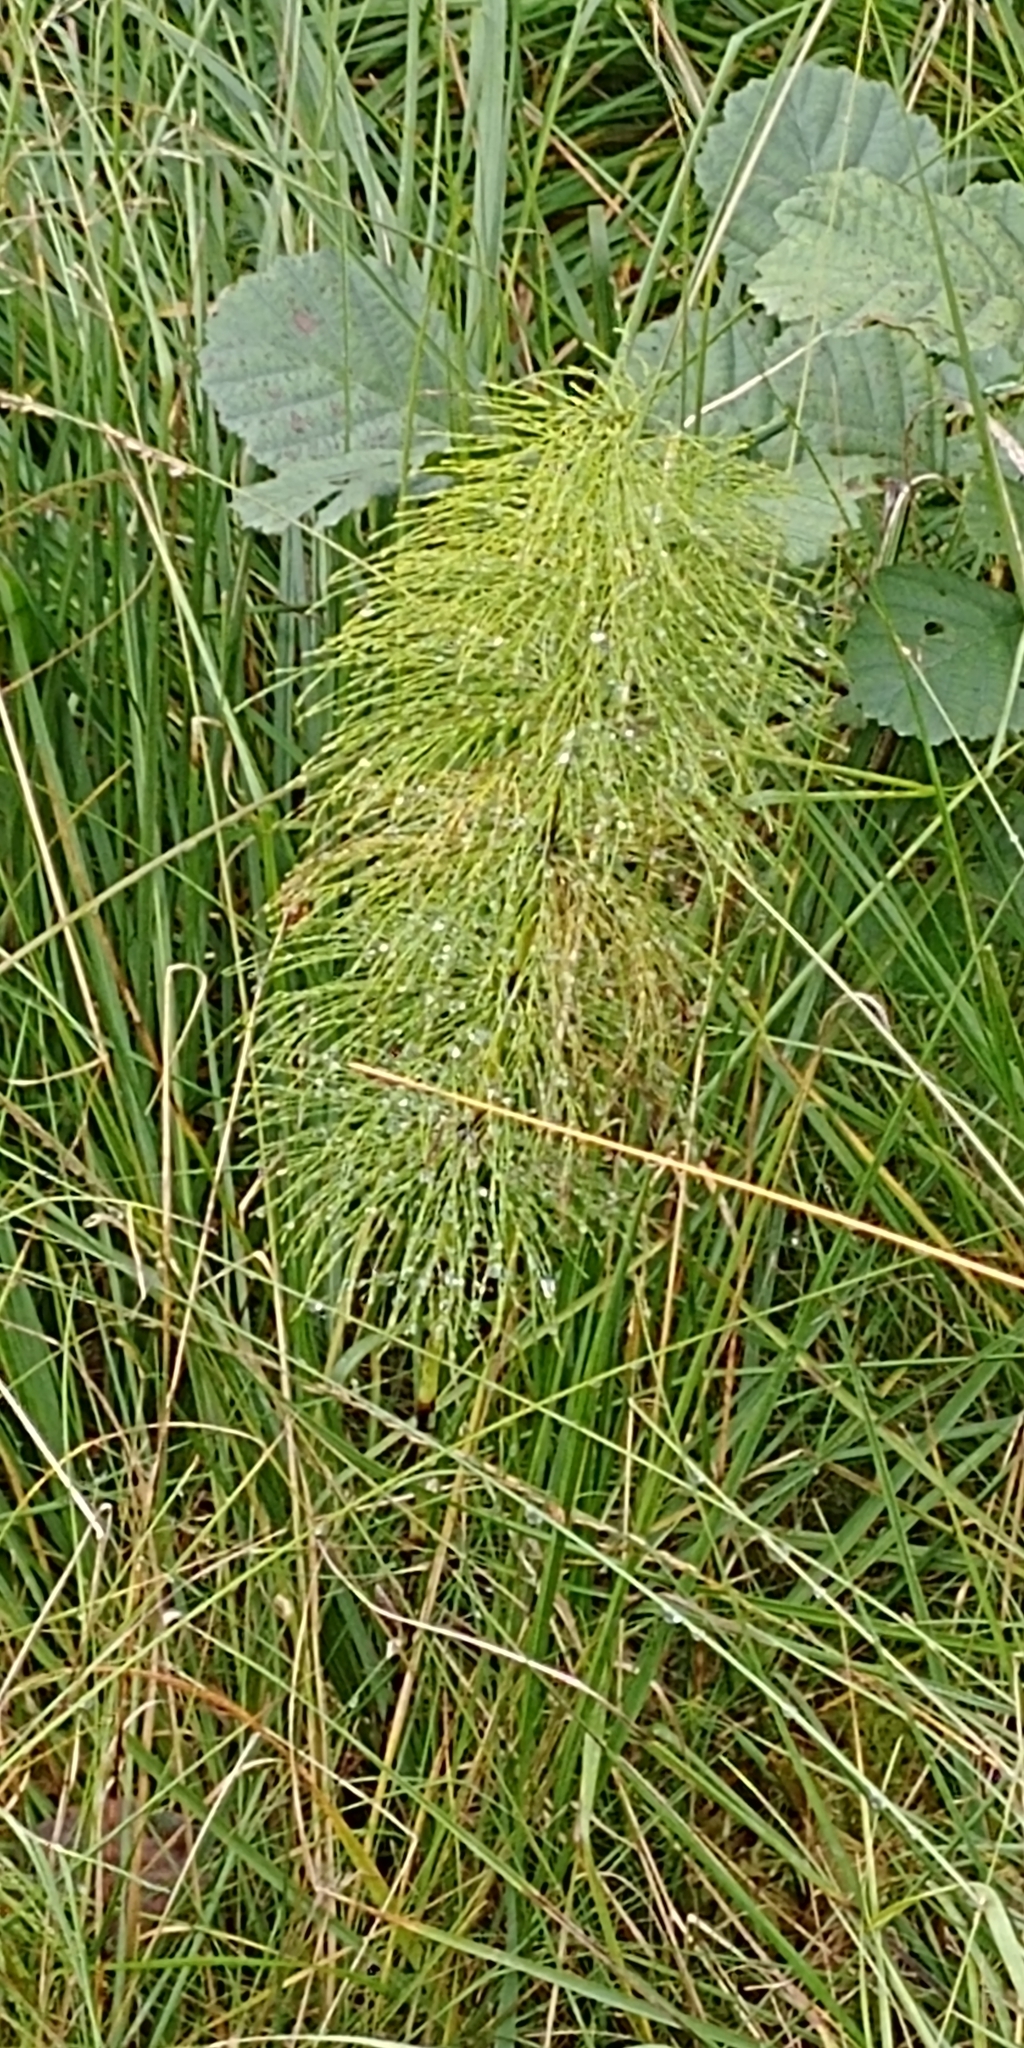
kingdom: Plantae
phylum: Tracheophyta
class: Polypodiopsida
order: Equisetales
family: Equisetaceae
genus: Equisetum
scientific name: Equisetum sylvaticum
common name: Wood horsetail
